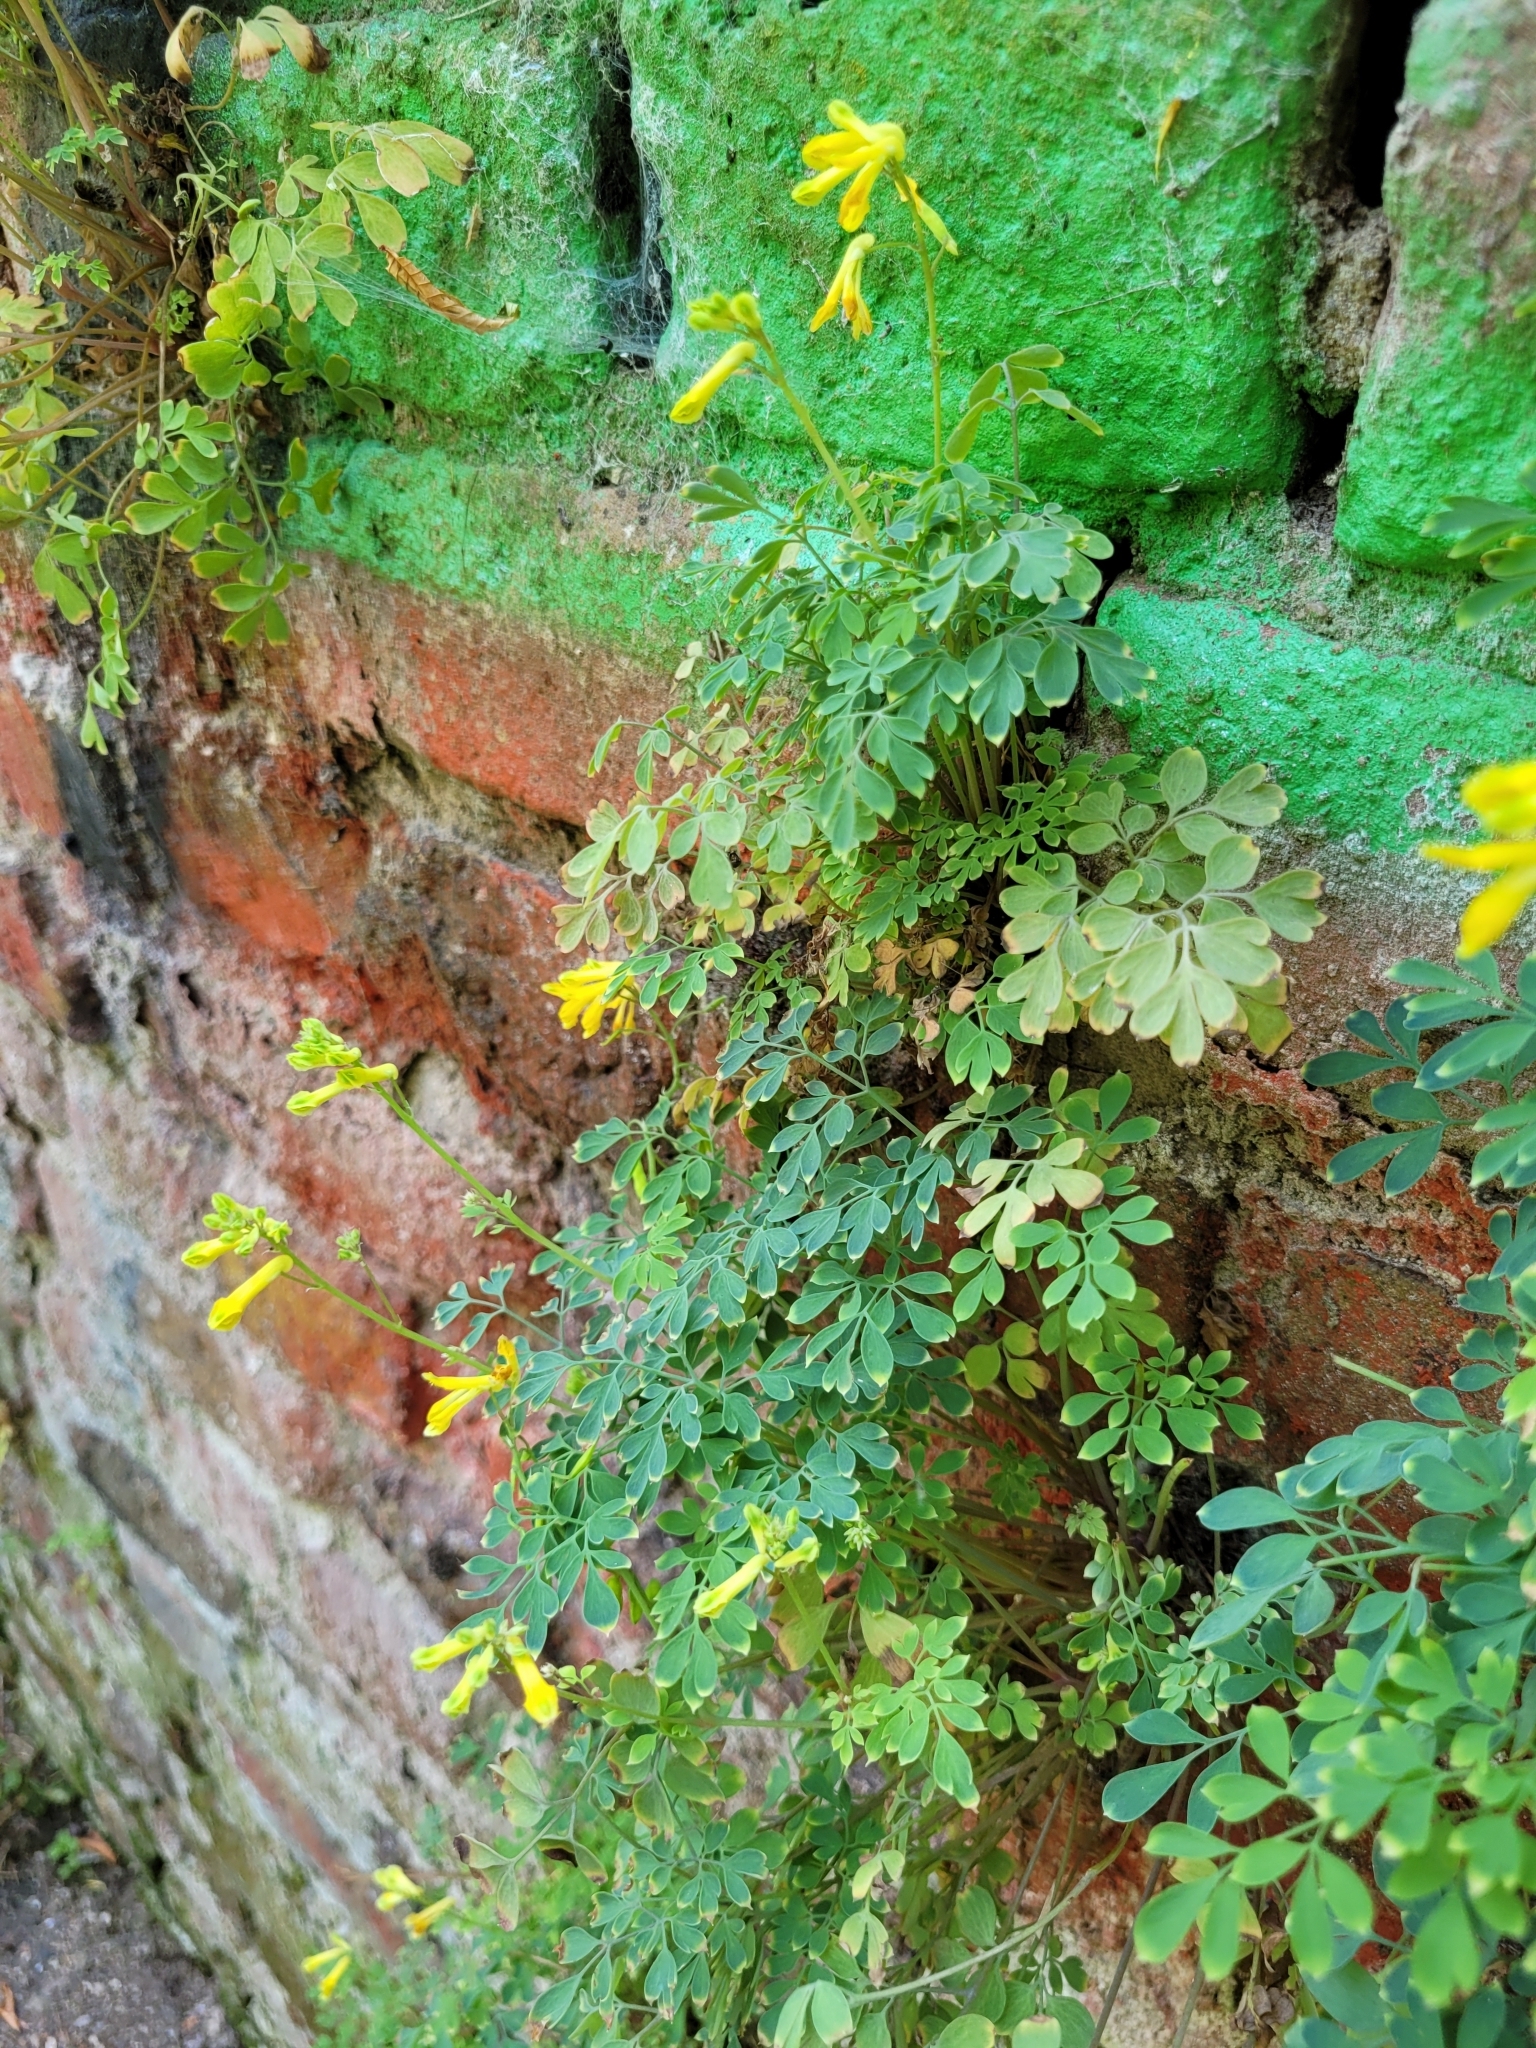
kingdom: Plantae
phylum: Tracheophyta
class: Magnoliopsida
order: Ranunculales
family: Papaveraceae
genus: Pseudofumaria
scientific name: Pseudofumaria lutea
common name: Yellow corydalis
